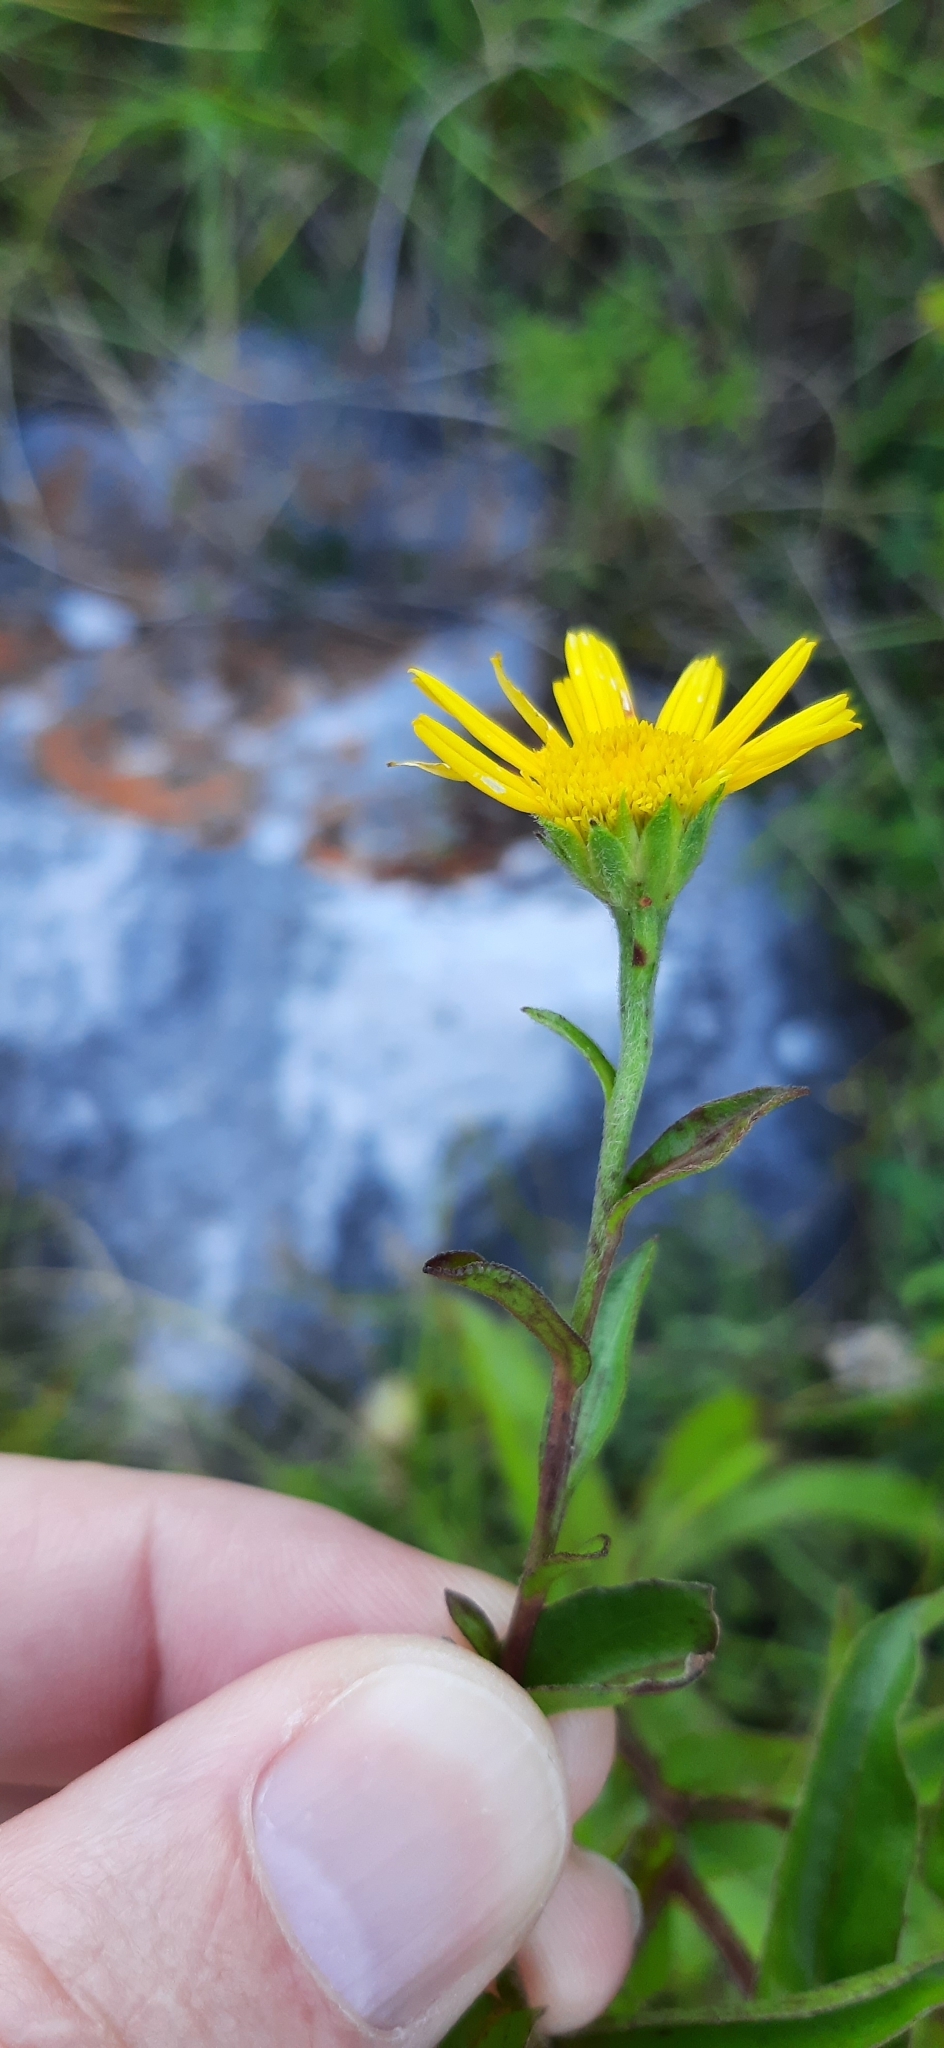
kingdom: Plantae
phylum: Tracheophyta
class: Magnoliopsida
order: Asterales
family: Asteraceae
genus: Buphthalmum
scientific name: Buphthalmum salicifolium
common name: Willow-leaved yellow-oxeye
